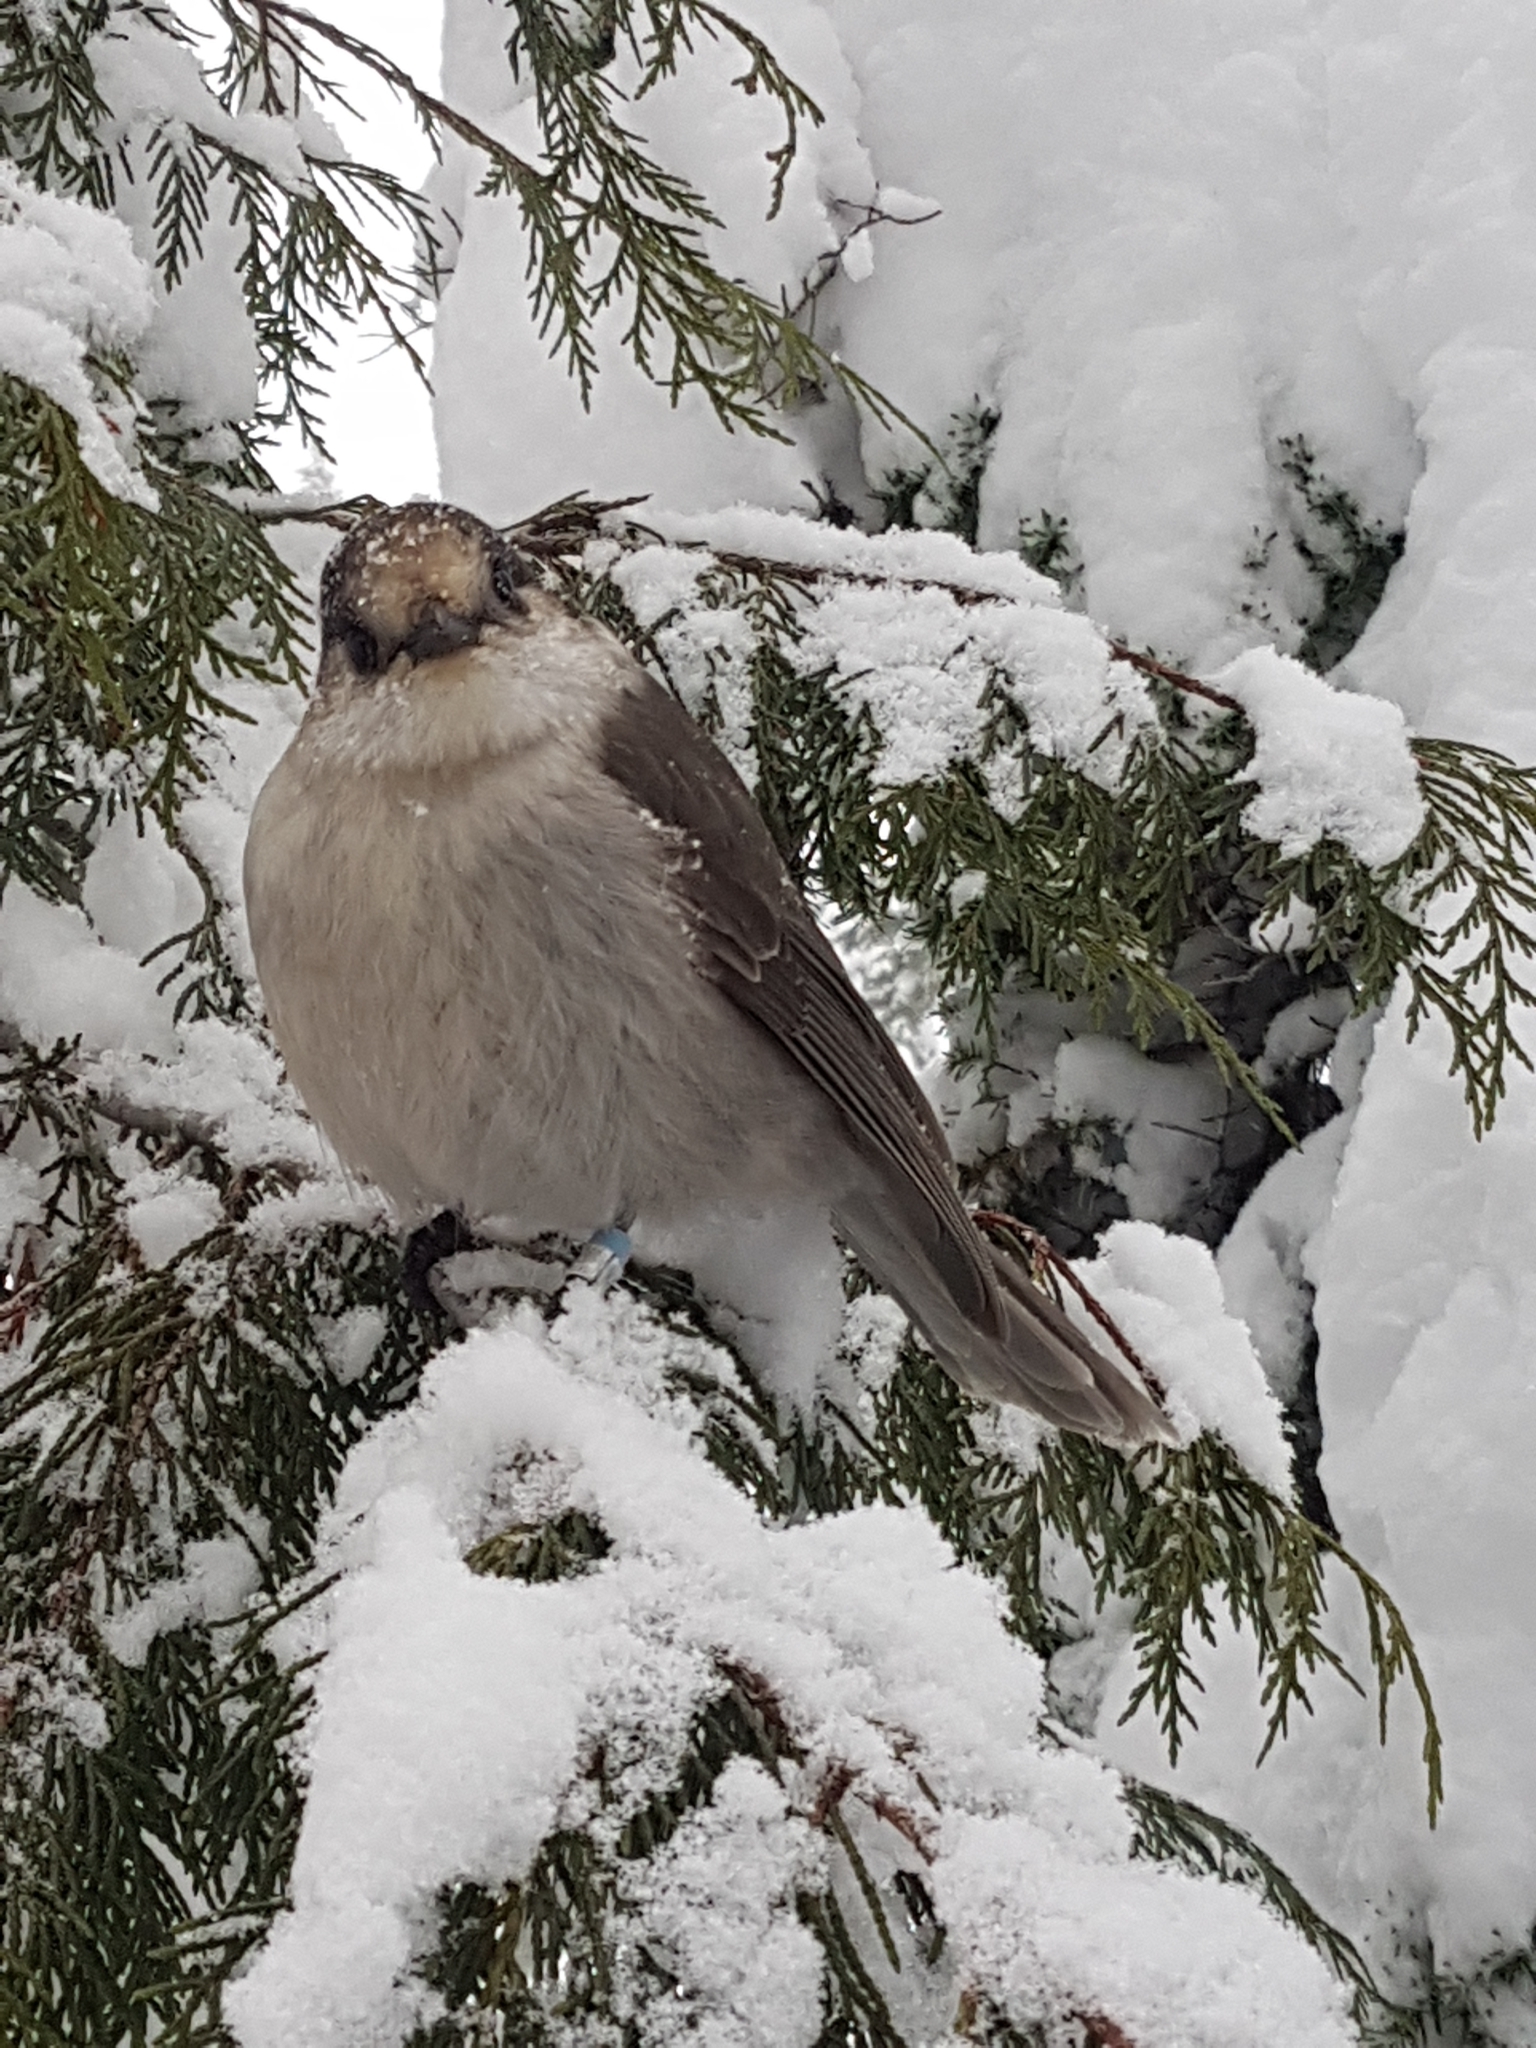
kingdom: Animalia
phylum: Chordata
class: Aves
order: Passeriformes
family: Corvidae
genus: Perisoreus
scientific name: Perisoreus canadensis
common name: Gray jay
